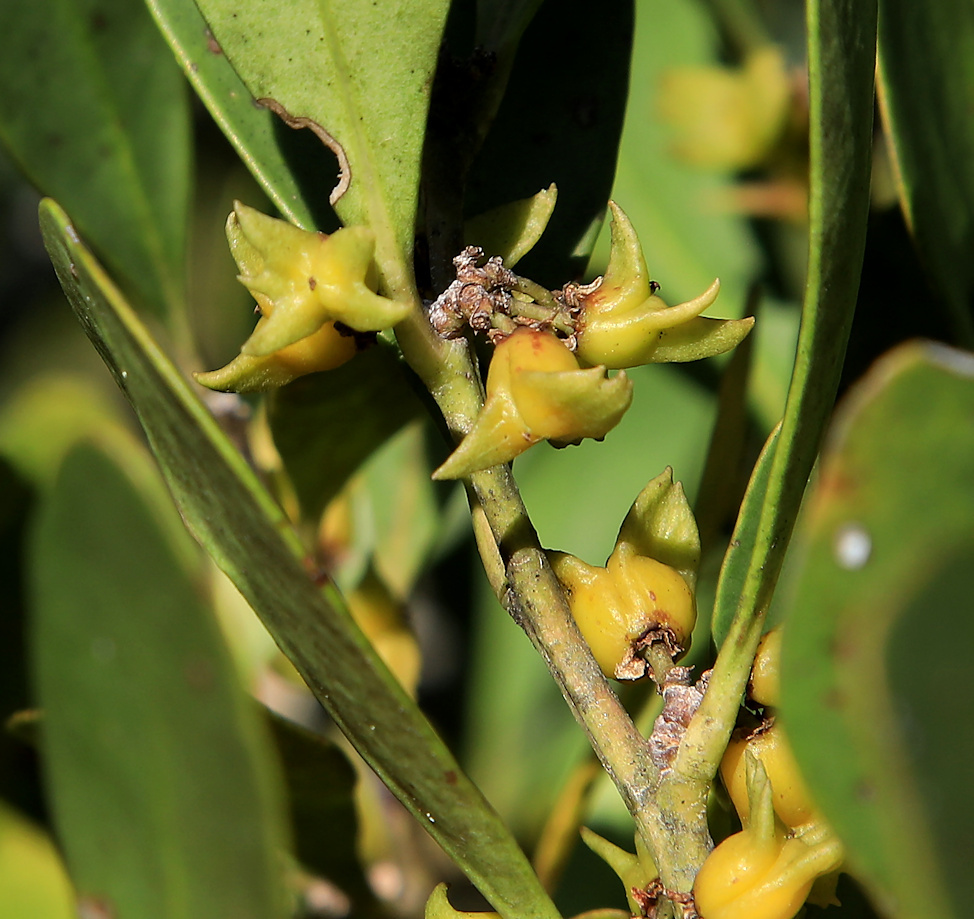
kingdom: Plantae
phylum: Tracheophyta
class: Magnoliopsida
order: Celastrales
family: Celastraceae
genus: Pterocelastrus
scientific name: Pterocelastrus tricuspidatus
